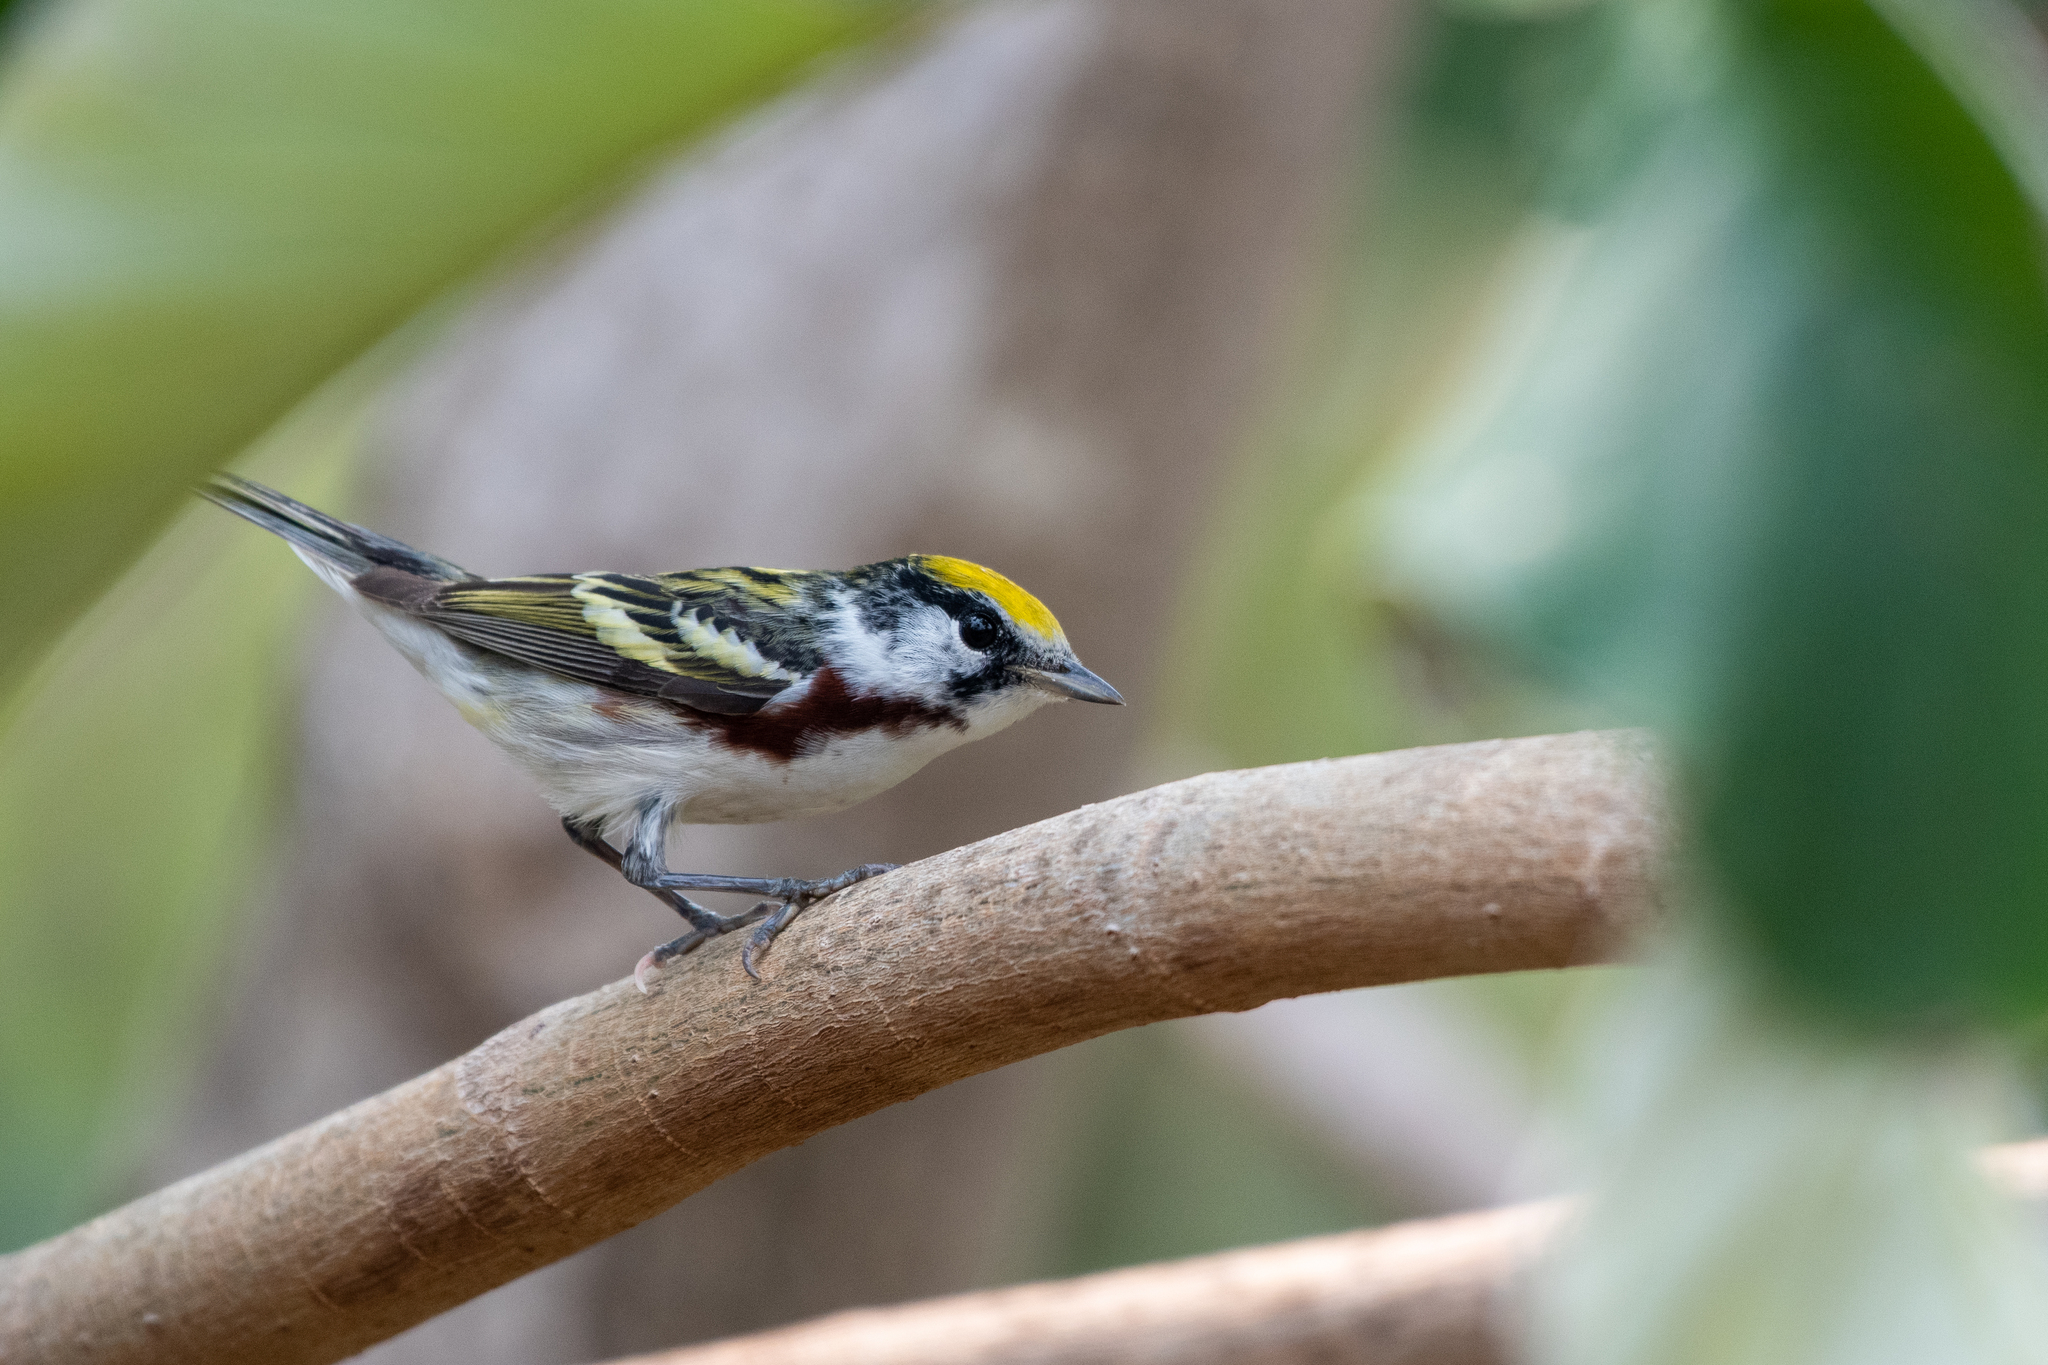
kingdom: Animalia
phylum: Chordata
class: Aves
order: Passeriformes
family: Parulidae
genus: Setophaga
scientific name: Setophaga pensylvanica
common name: Chestnut-sided warbler
